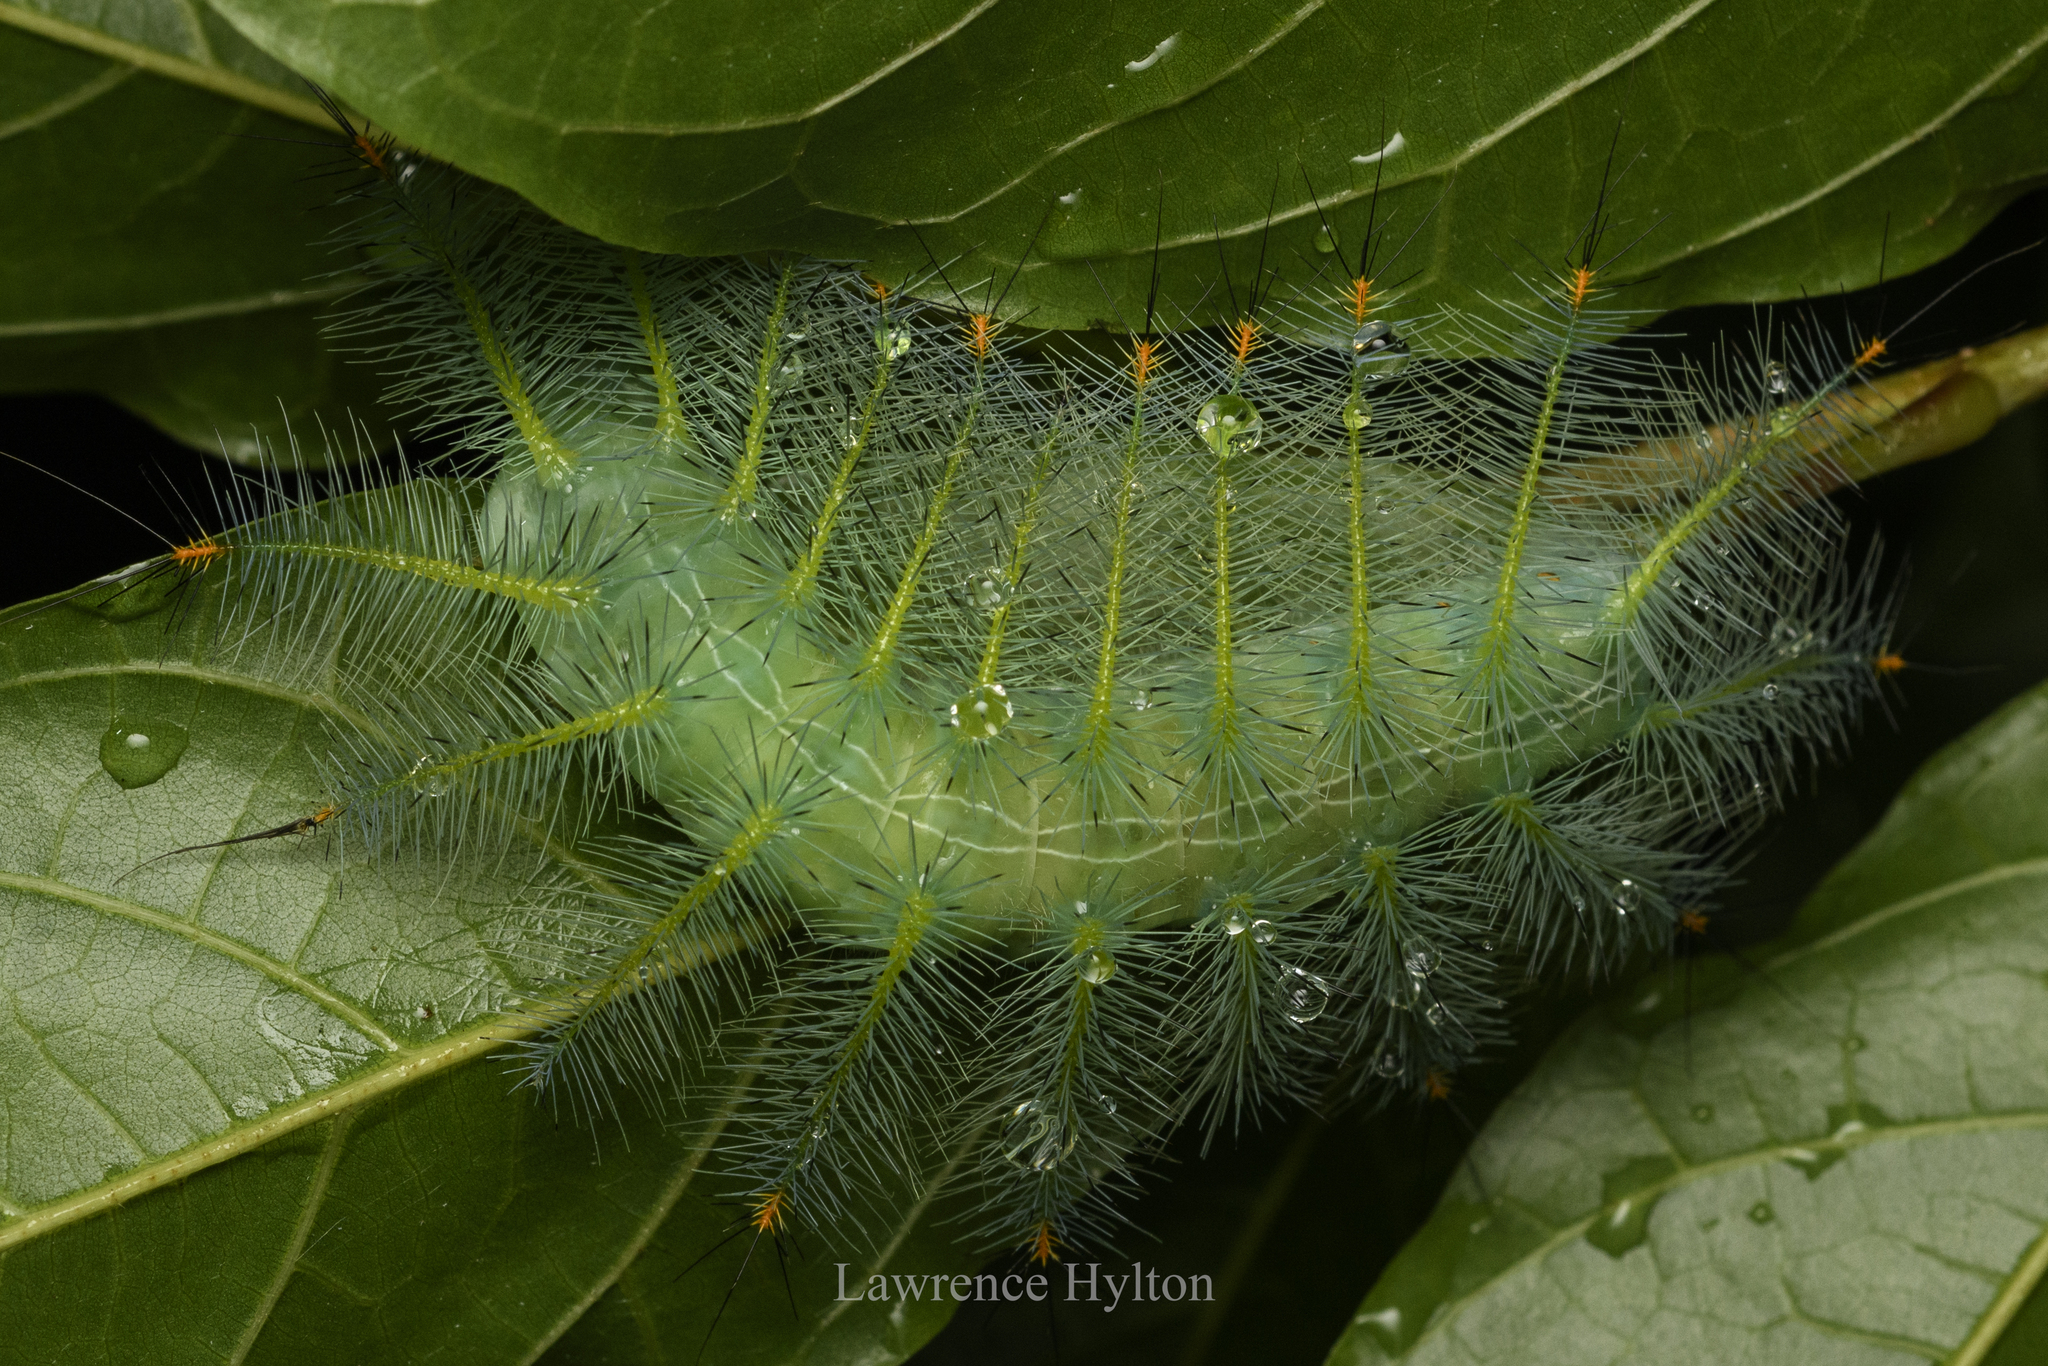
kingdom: Animalia
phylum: Arthropoda
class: Insecta
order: Lepidoptera
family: Nymphalidae
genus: Euthalia
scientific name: Euthalia aconthea
